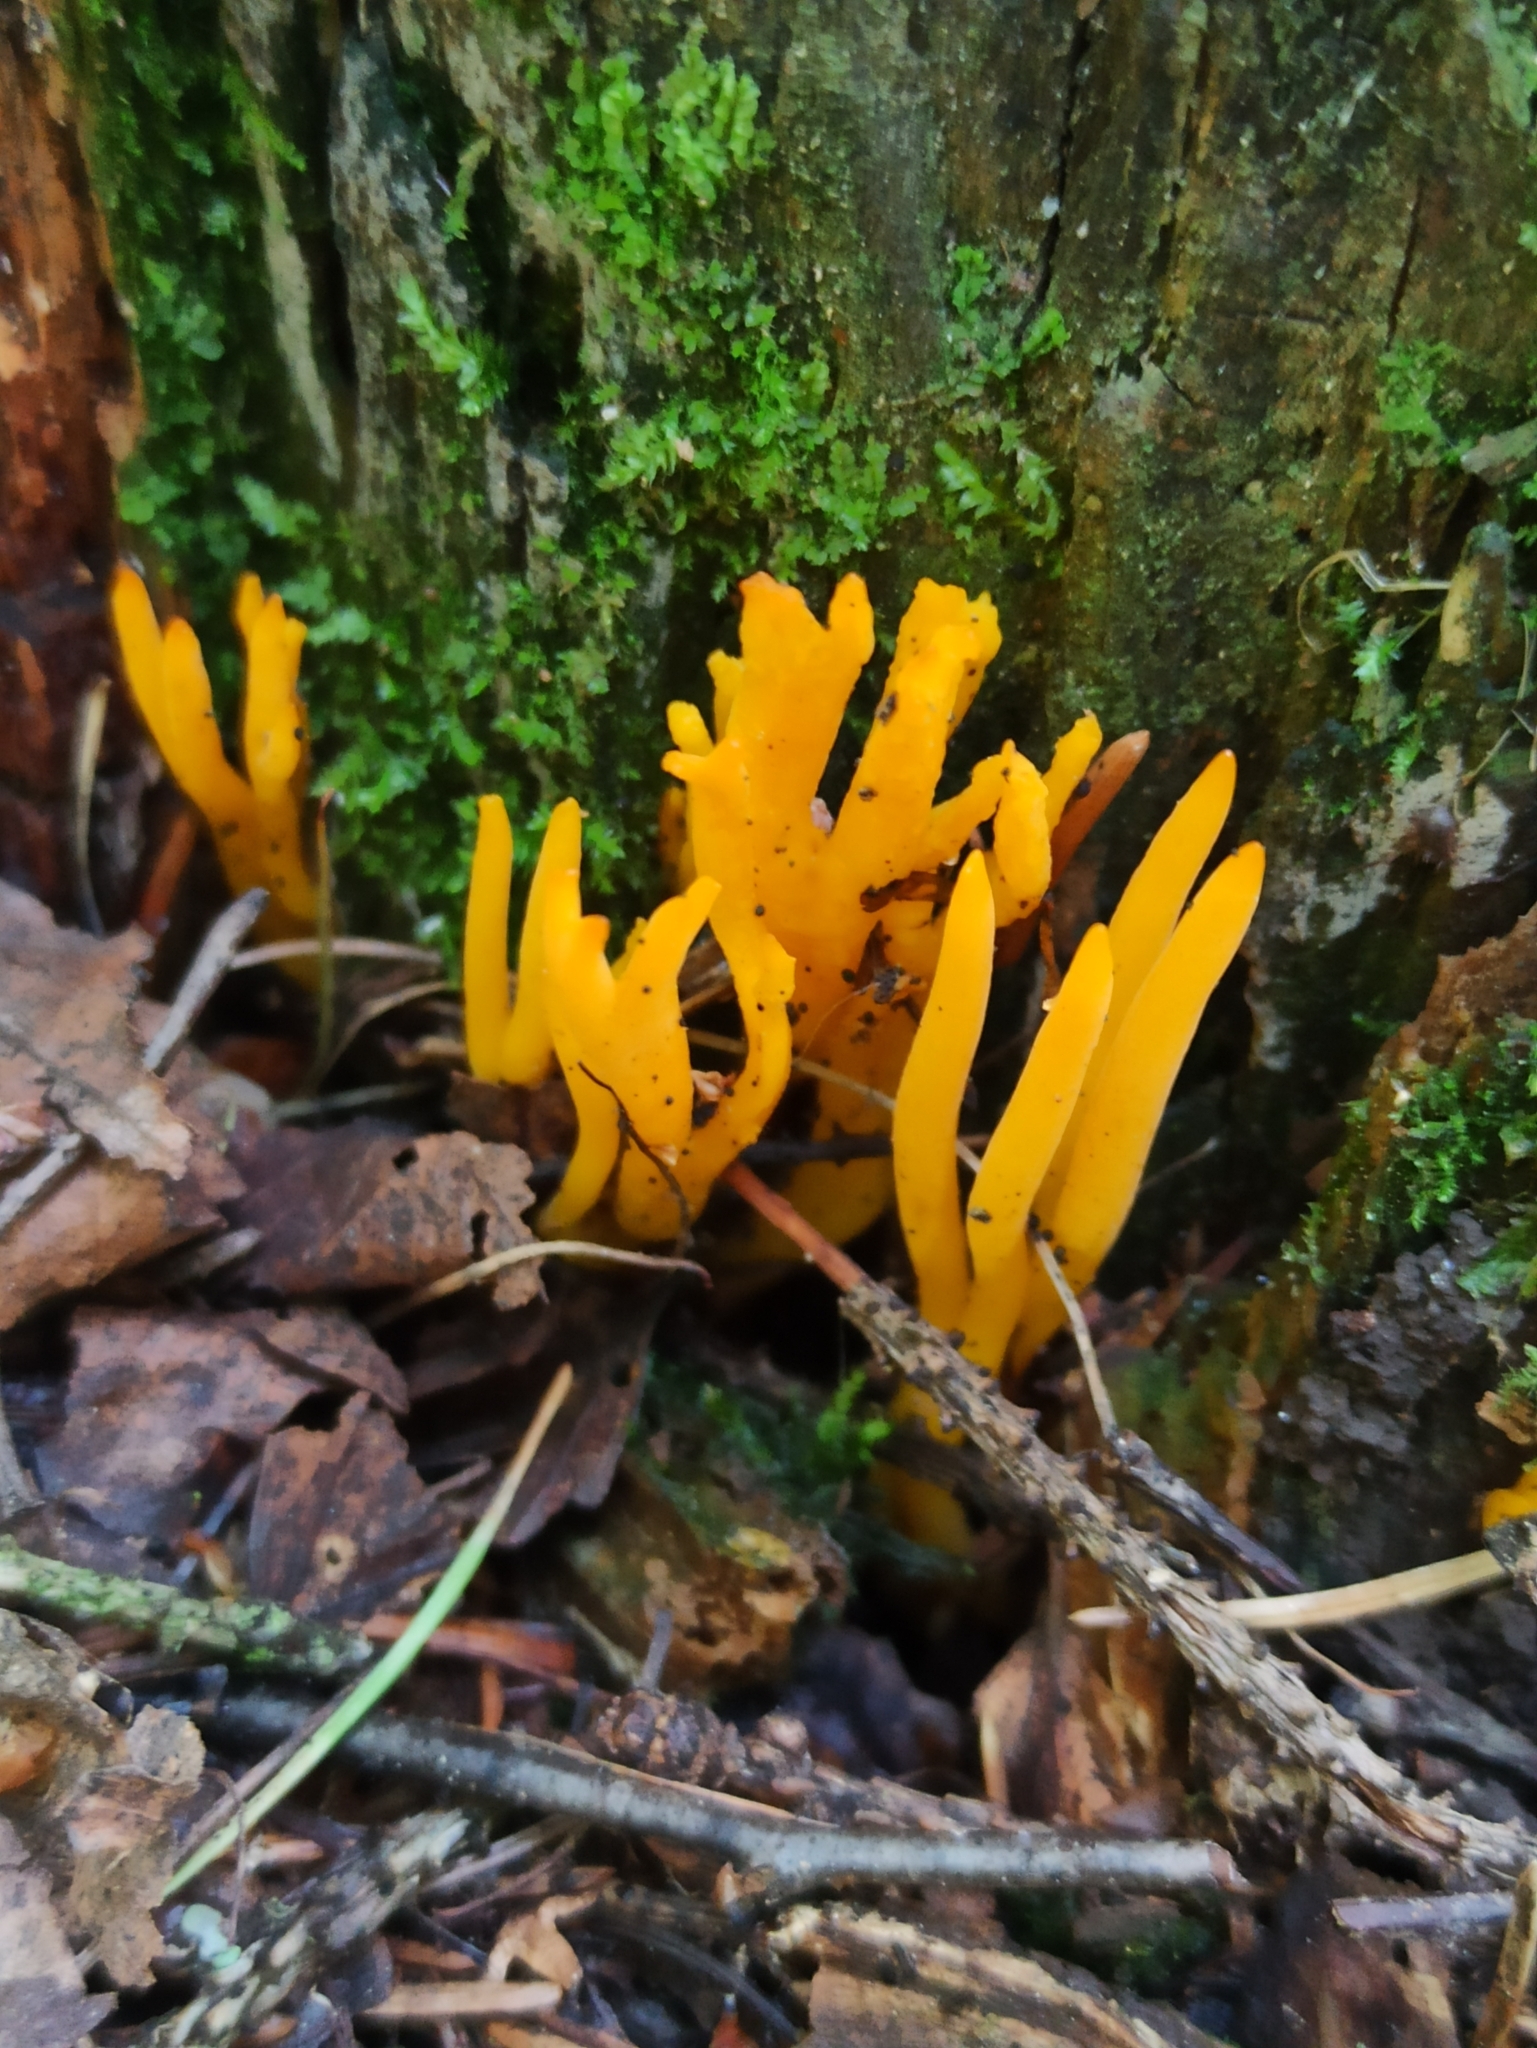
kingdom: Fungi
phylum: Basidiomycota
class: Dacrymycetes
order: Dacrymycetales
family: Dacrymycetaceae
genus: Calocera
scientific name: Calocera viscosa
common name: Yellow stagshorn
